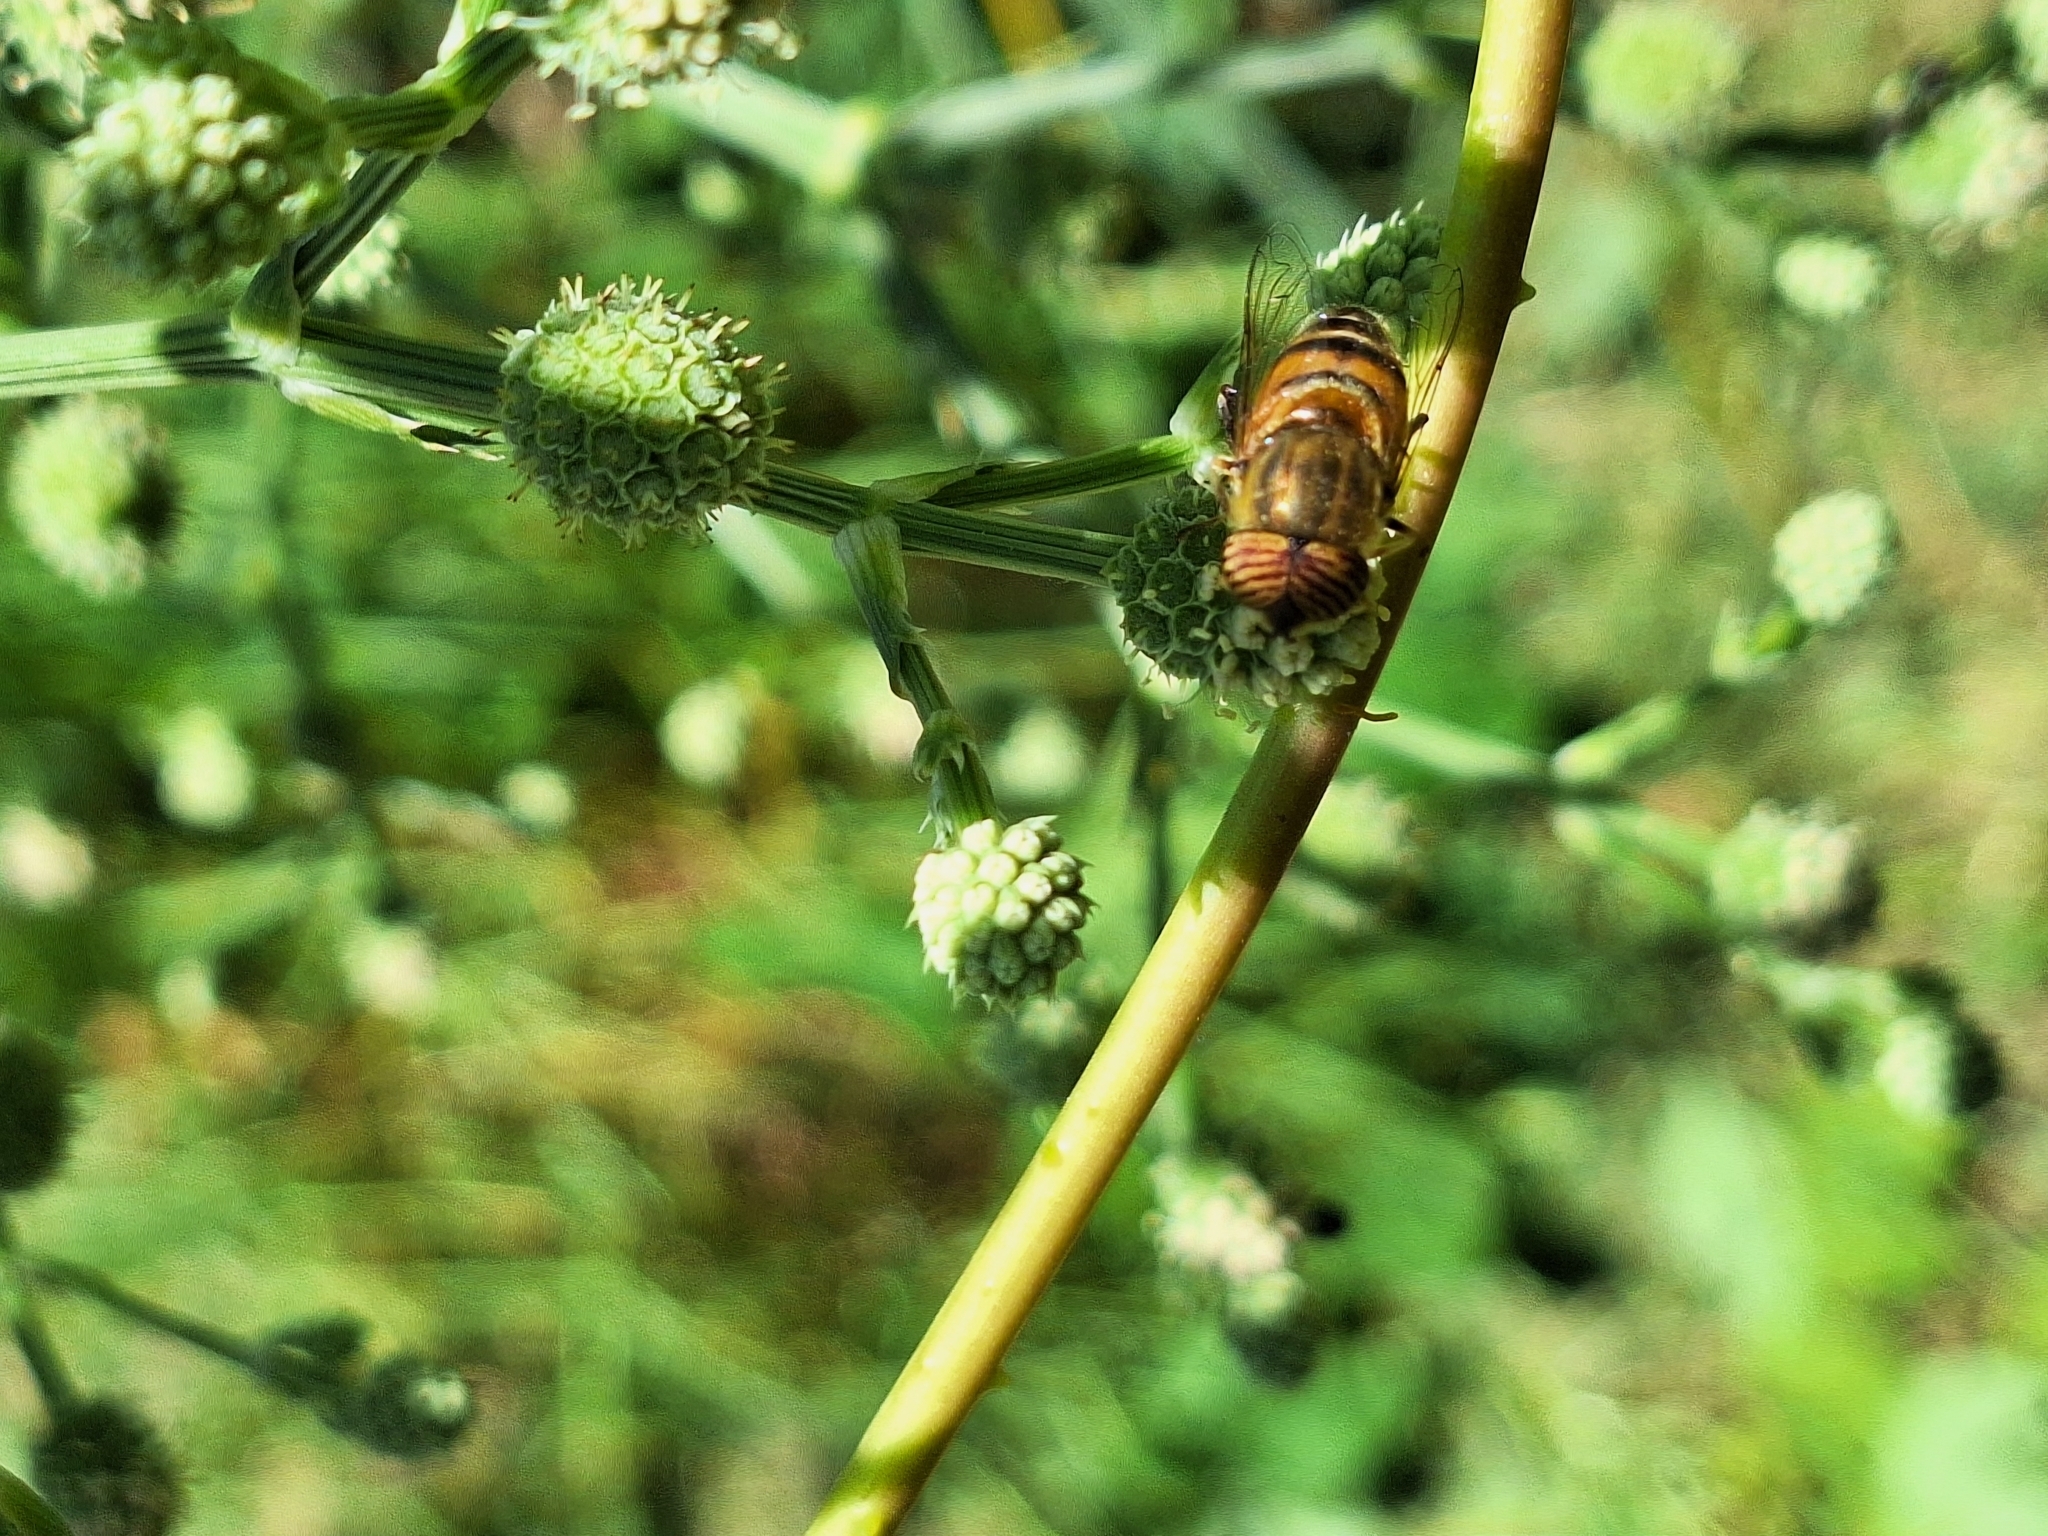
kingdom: Animalia
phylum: Arthropoda
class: Insecta
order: Diptera
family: Syrphidae
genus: Eristalinus
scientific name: Eristalinus taeniops
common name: Syrphid fly
